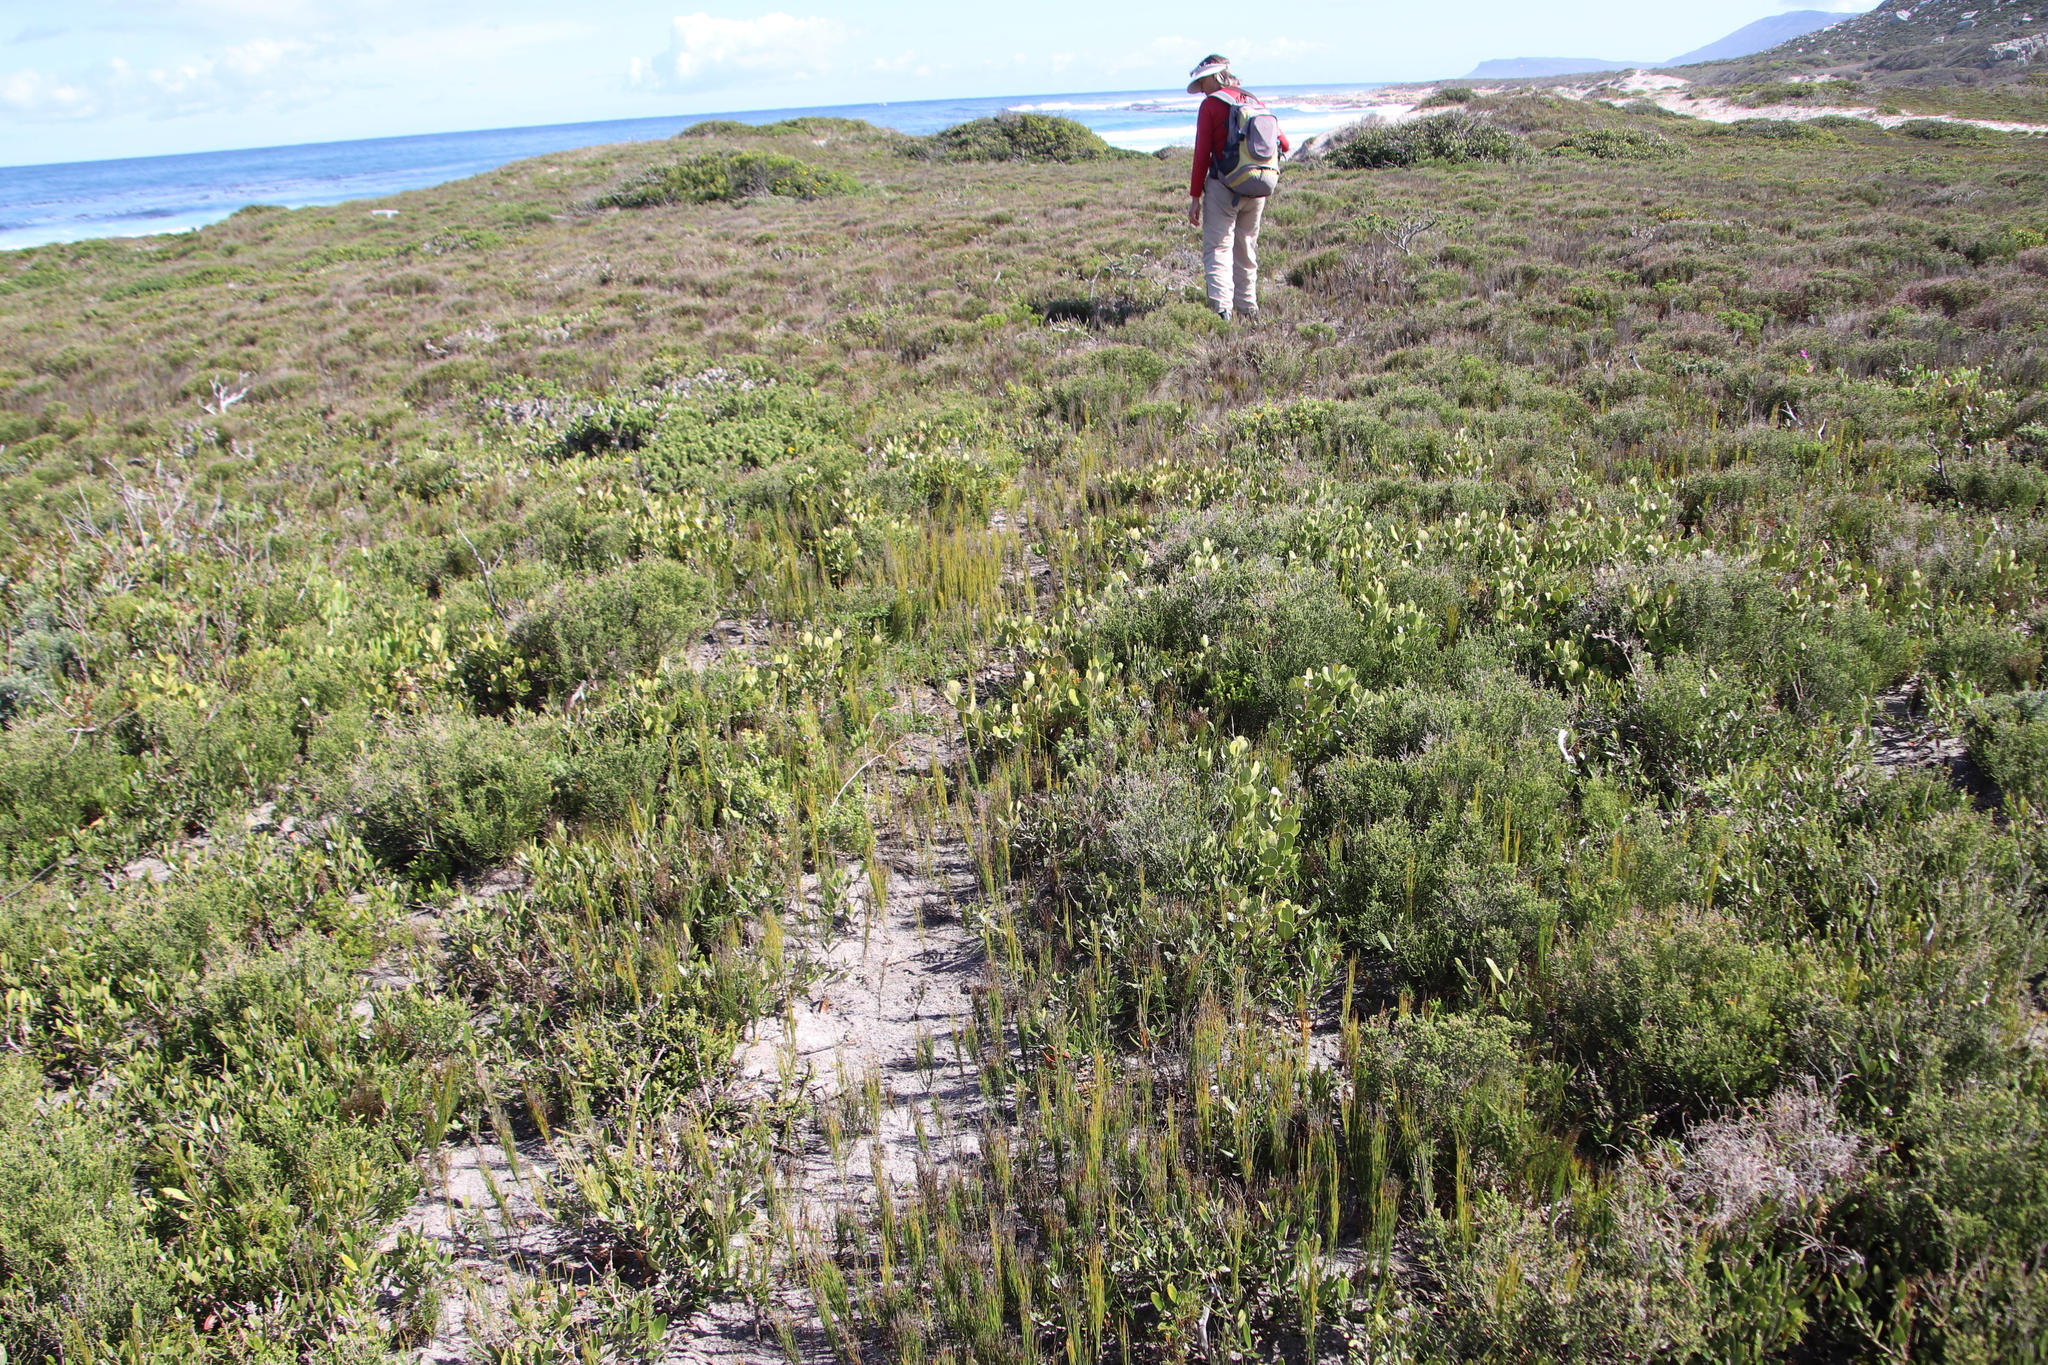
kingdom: Plantae
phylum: Tracheophyta
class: Liliopsida
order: Poales
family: Restionaceae
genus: Restio
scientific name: Restio eleocharis
